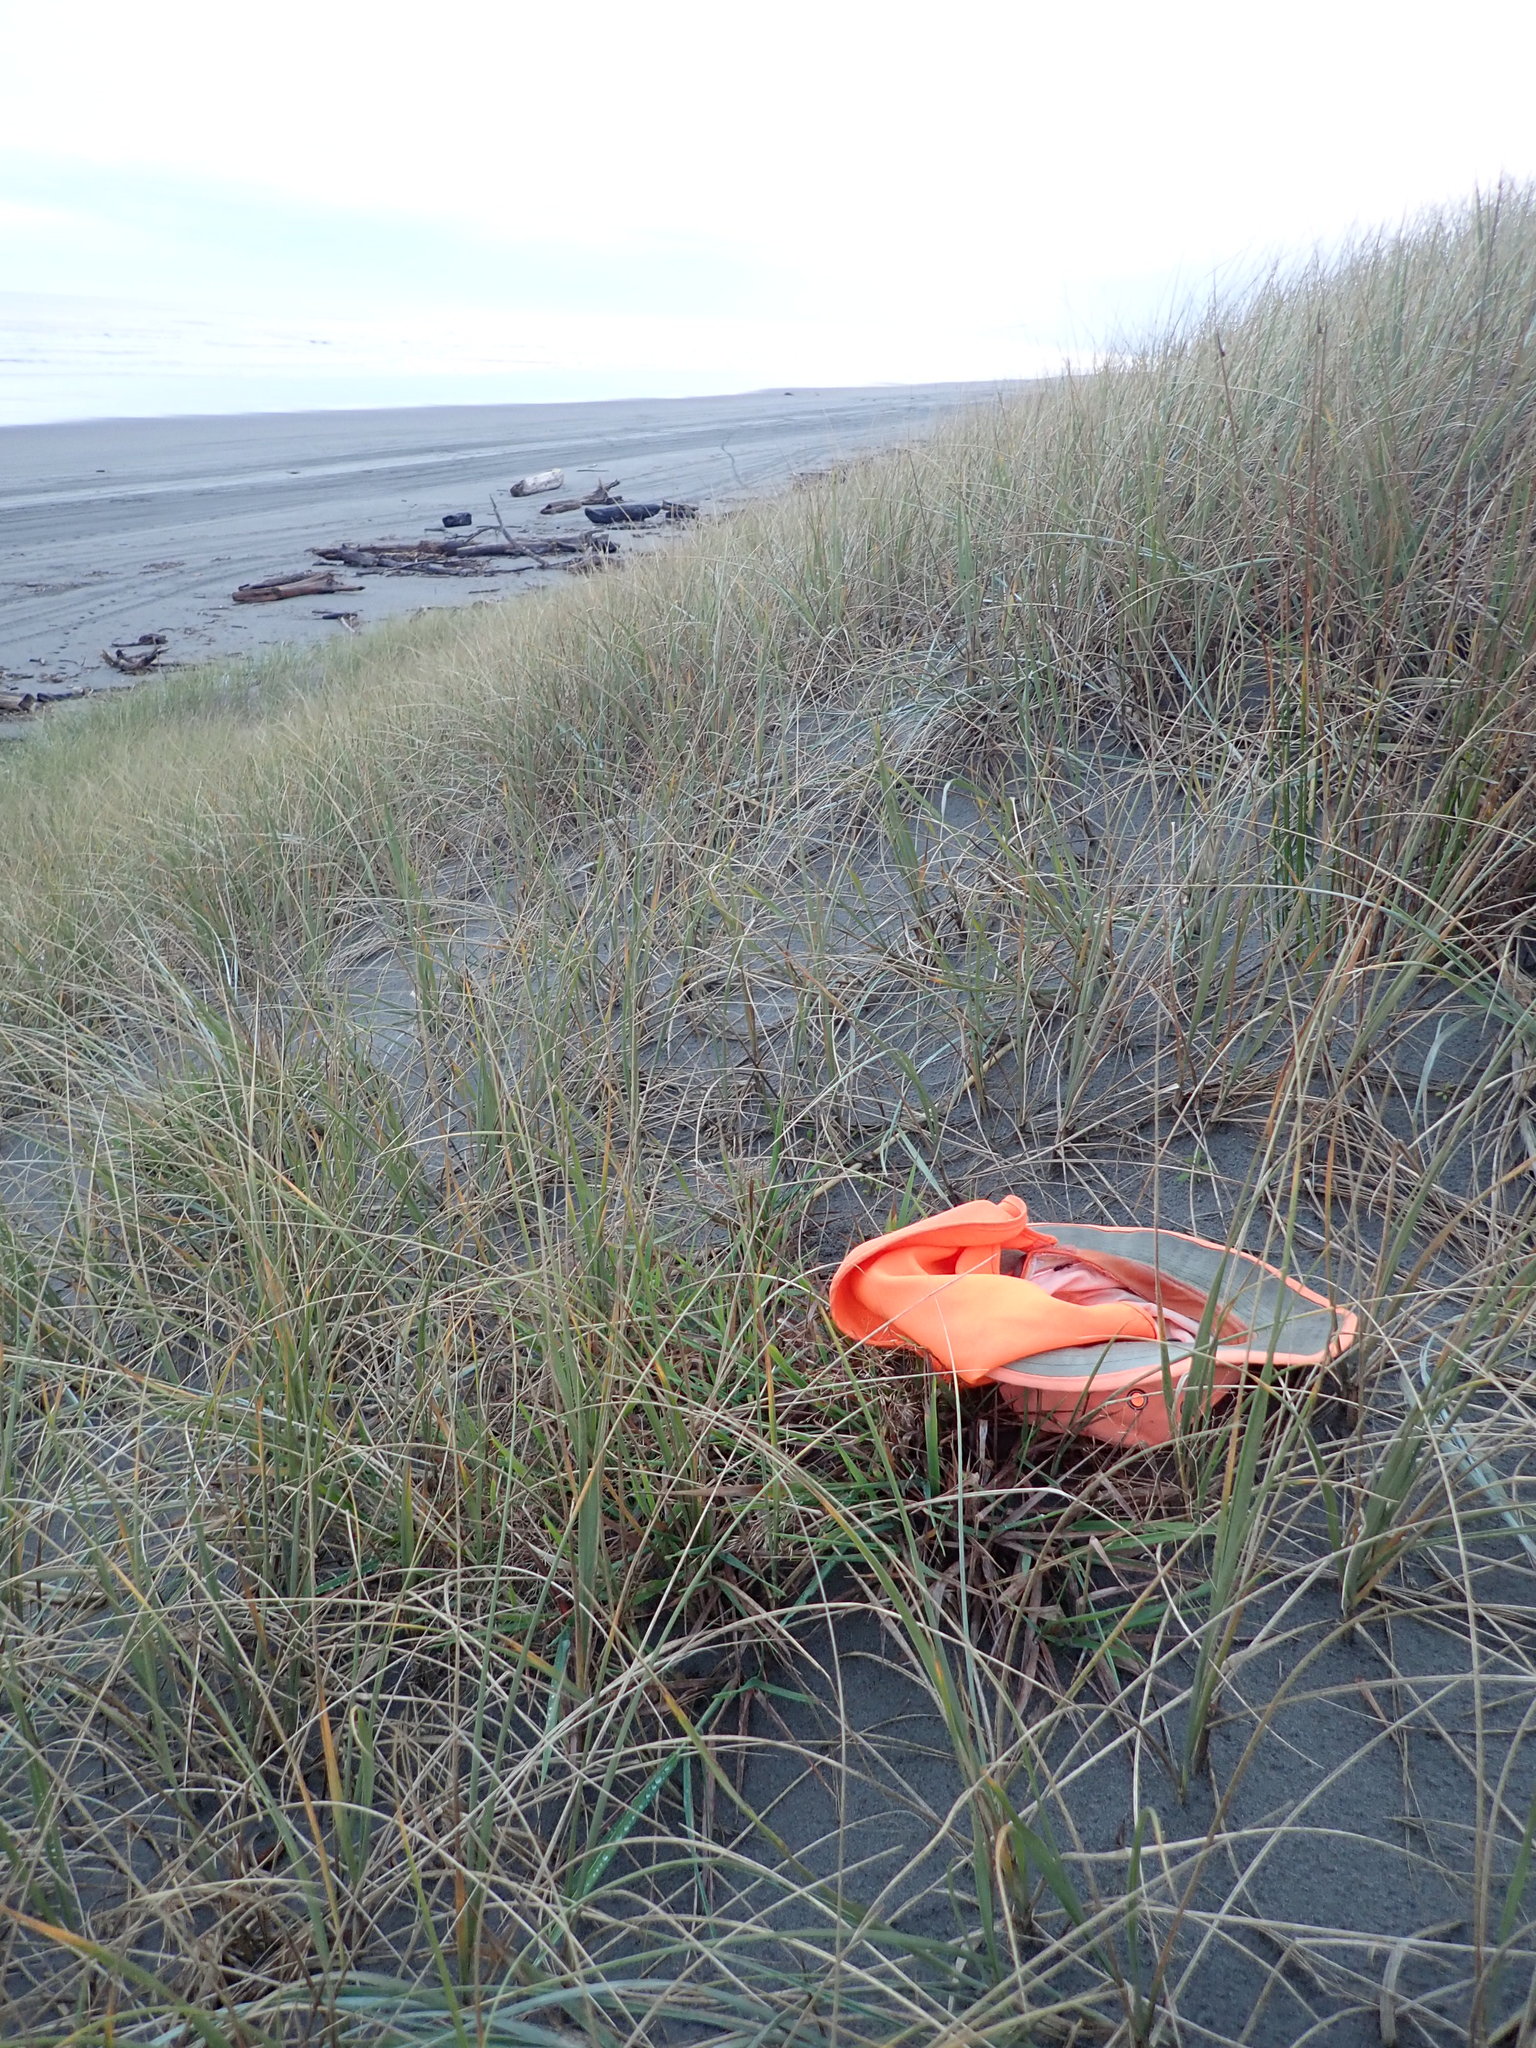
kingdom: Plantae
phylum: Tracheophyta
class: Liliopsida
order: Poales
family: Poaceae
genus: Lachnagrostis
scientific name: Lachnagrostis billardierei
